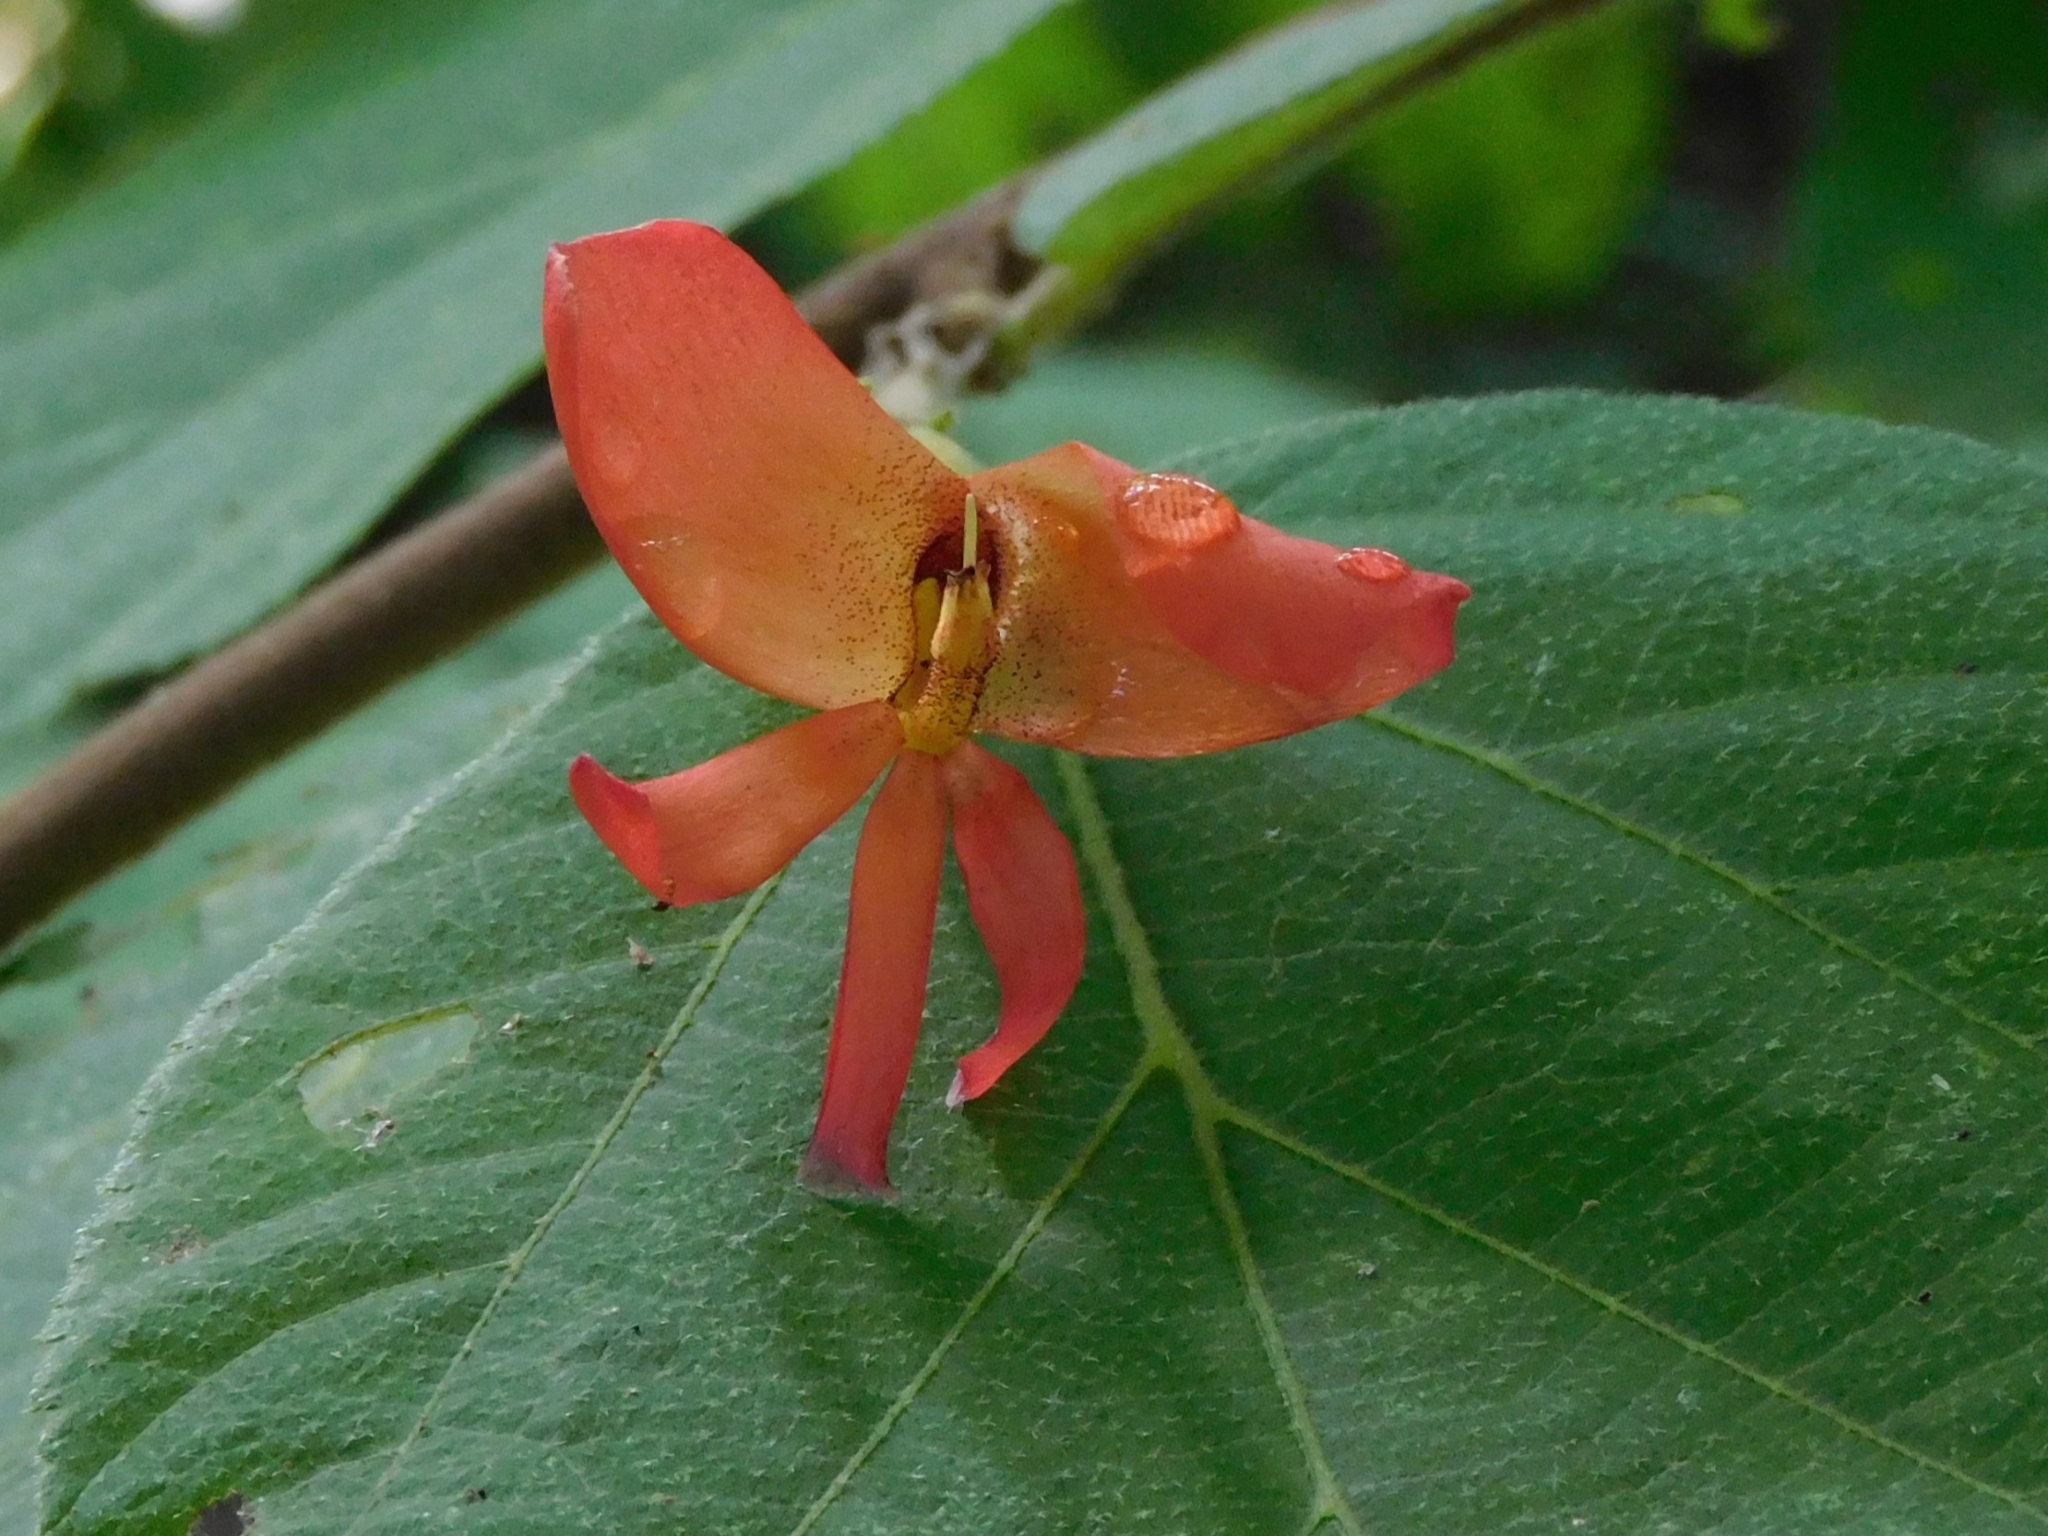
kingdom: Plantae
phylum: Tracheophyta
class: Magnoliopsida
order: Malvales
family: Malvaceae
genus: Helicteres
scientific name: Helicteres isora
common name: East indian screwtree
